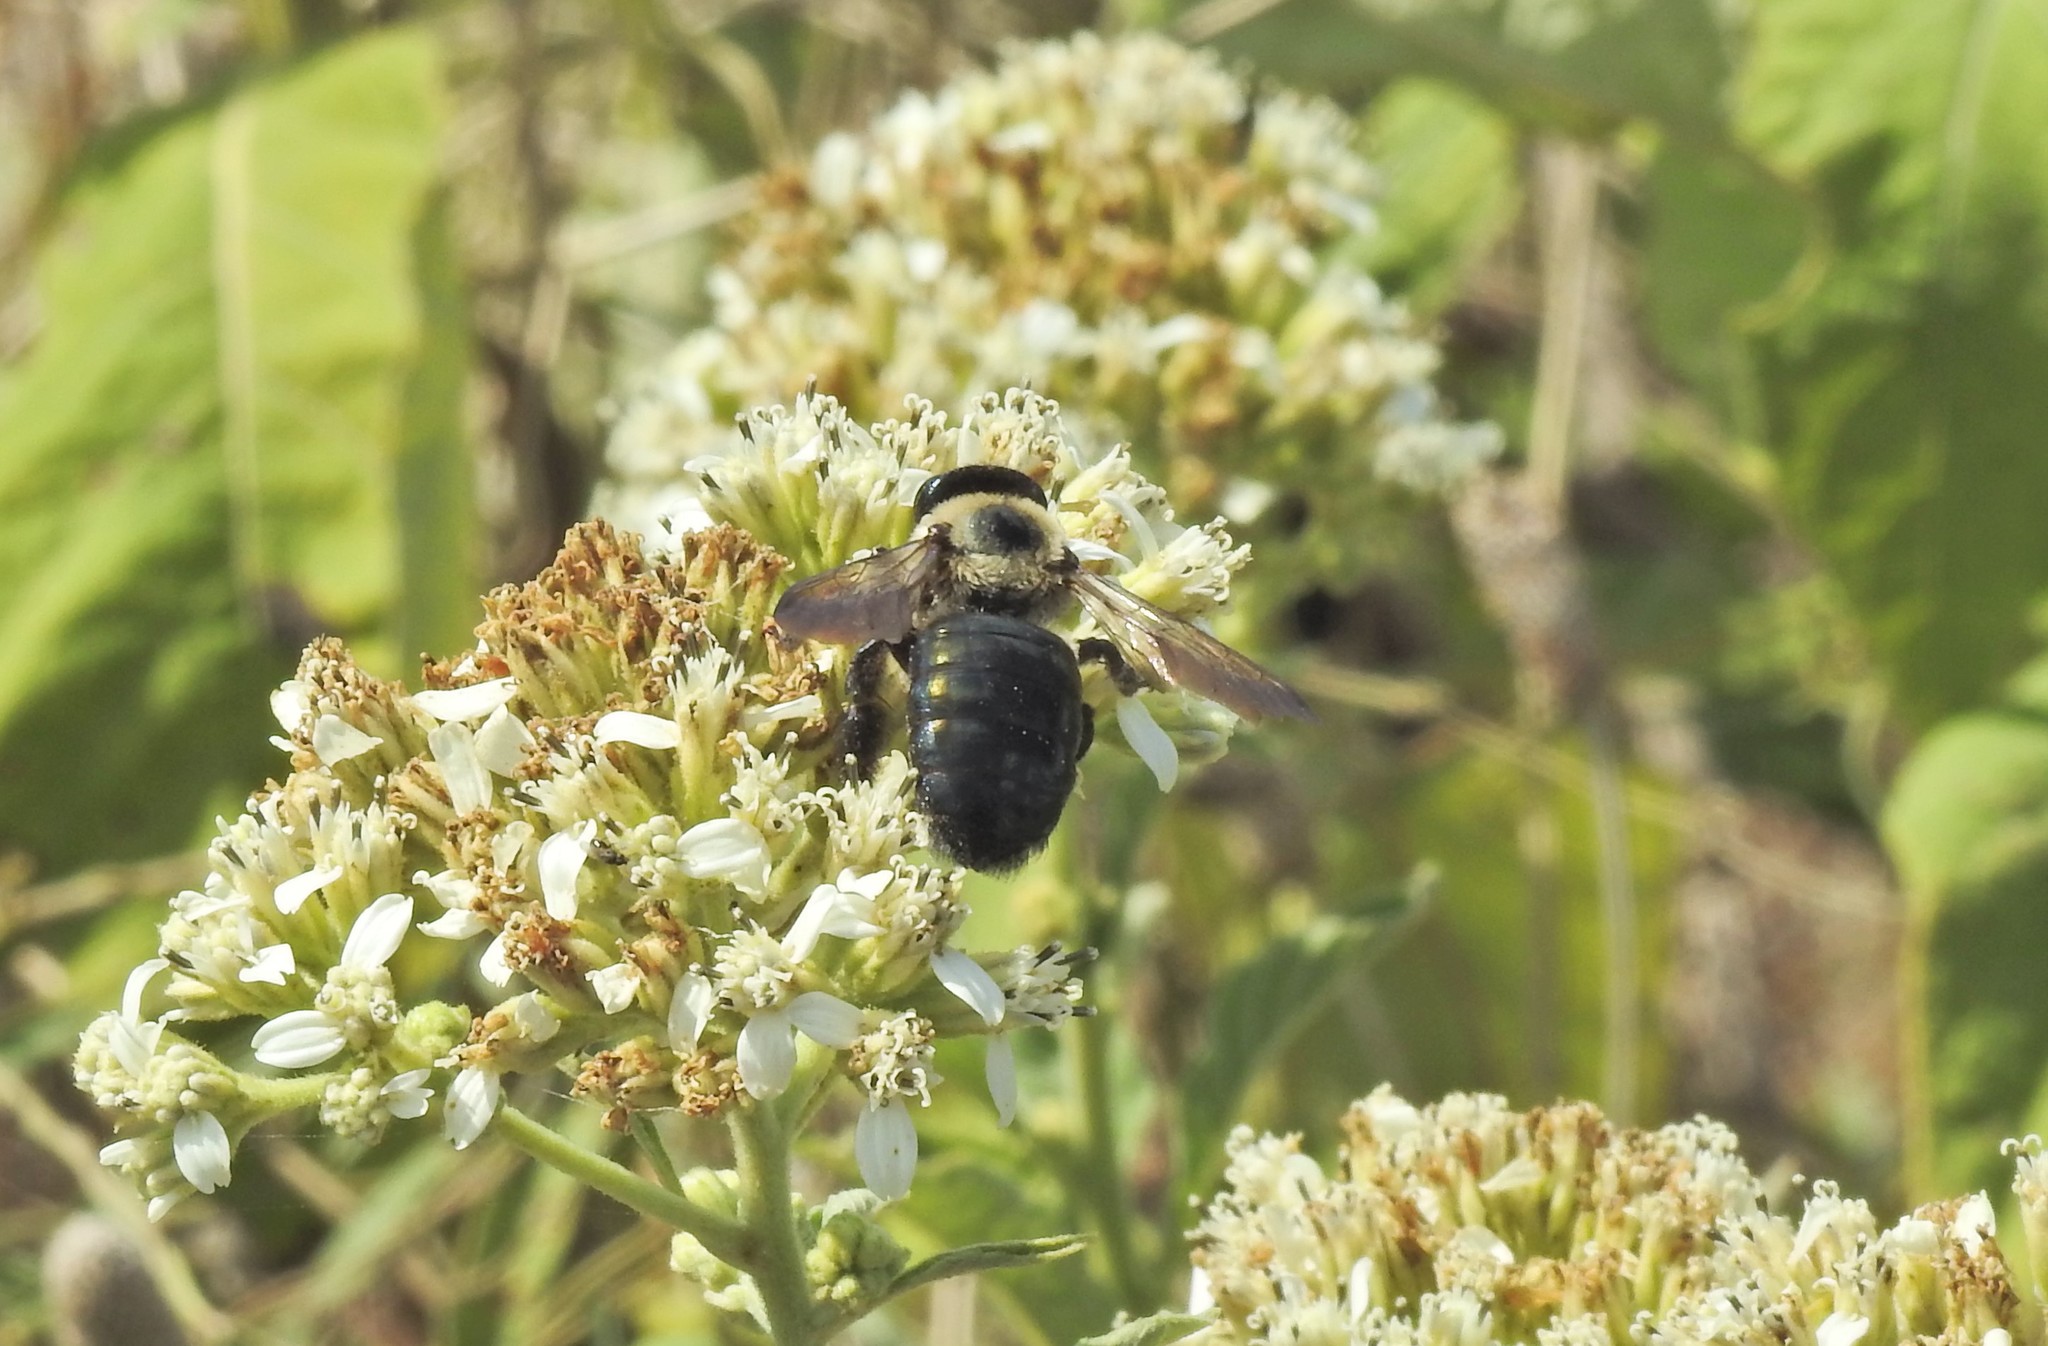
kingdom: Animalia
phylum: Arthropoda
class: Insecta
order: Hymenoptera
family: Apidae
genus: Xylocopa
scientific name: Xylocopa virginica
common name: Carpenter bee
